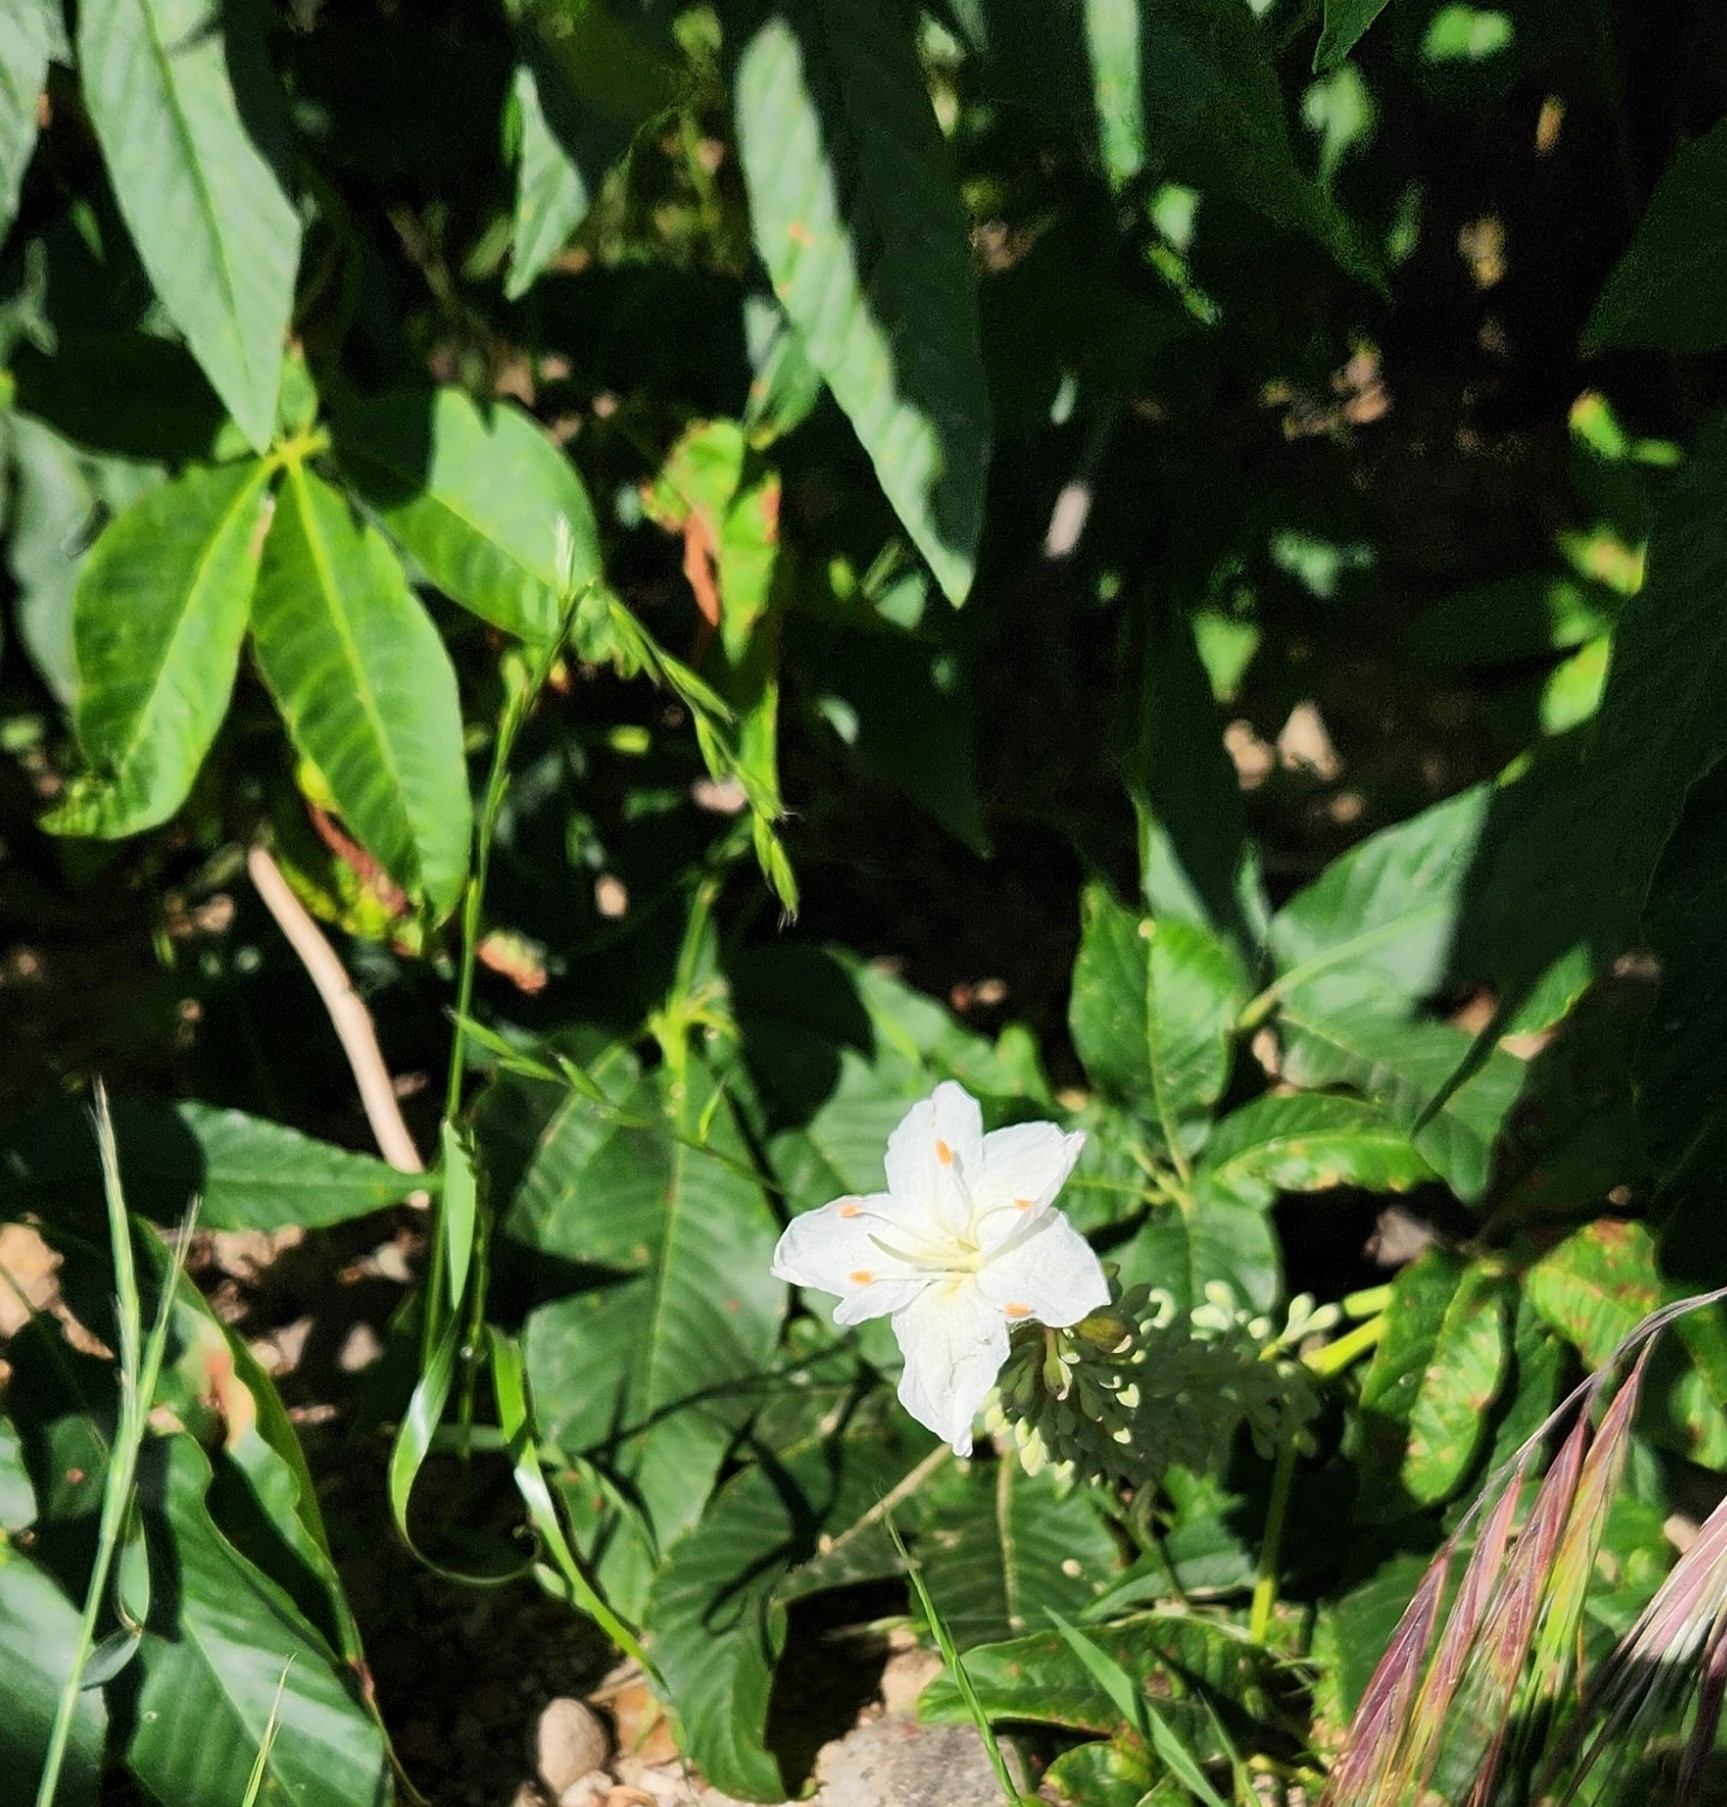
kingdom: Plantae
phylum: Tracheophyta
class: Magnoliopsida
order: Sapindales
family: Sapindaceae
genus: Aesculus
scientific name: Aesculus californica
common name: California buckeye
